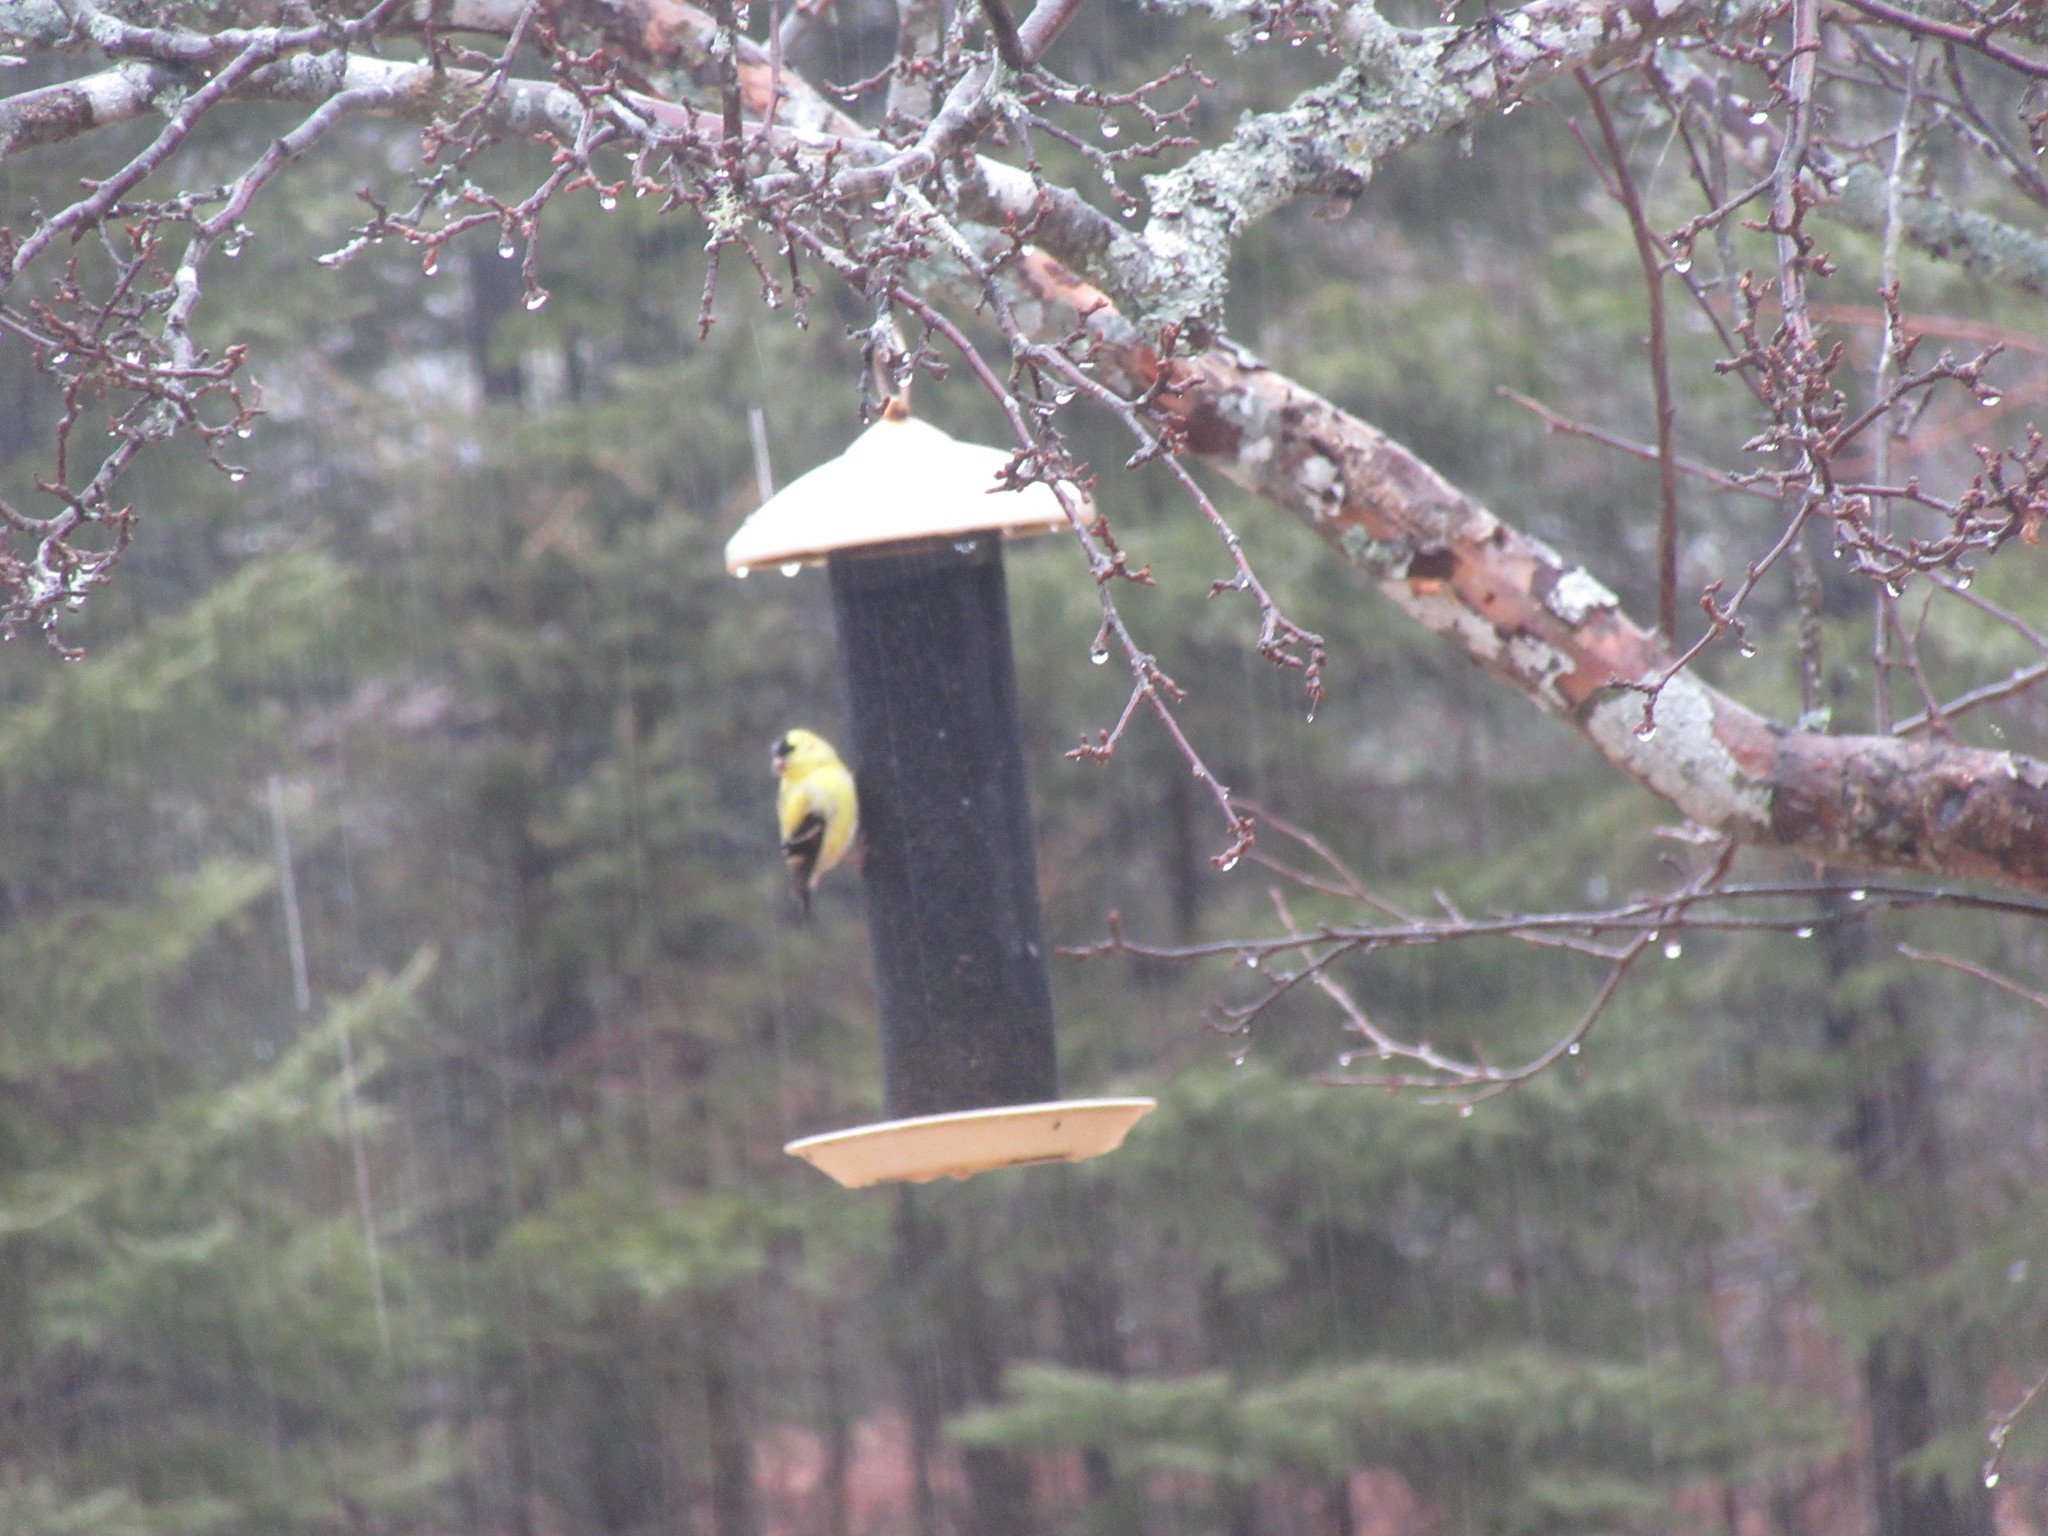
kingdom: Animalia
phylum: Chordata
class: Aves
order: Passeriformes
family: Fringillidae
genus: Spinus
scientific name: Spinus tristis
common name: American goldfinch
